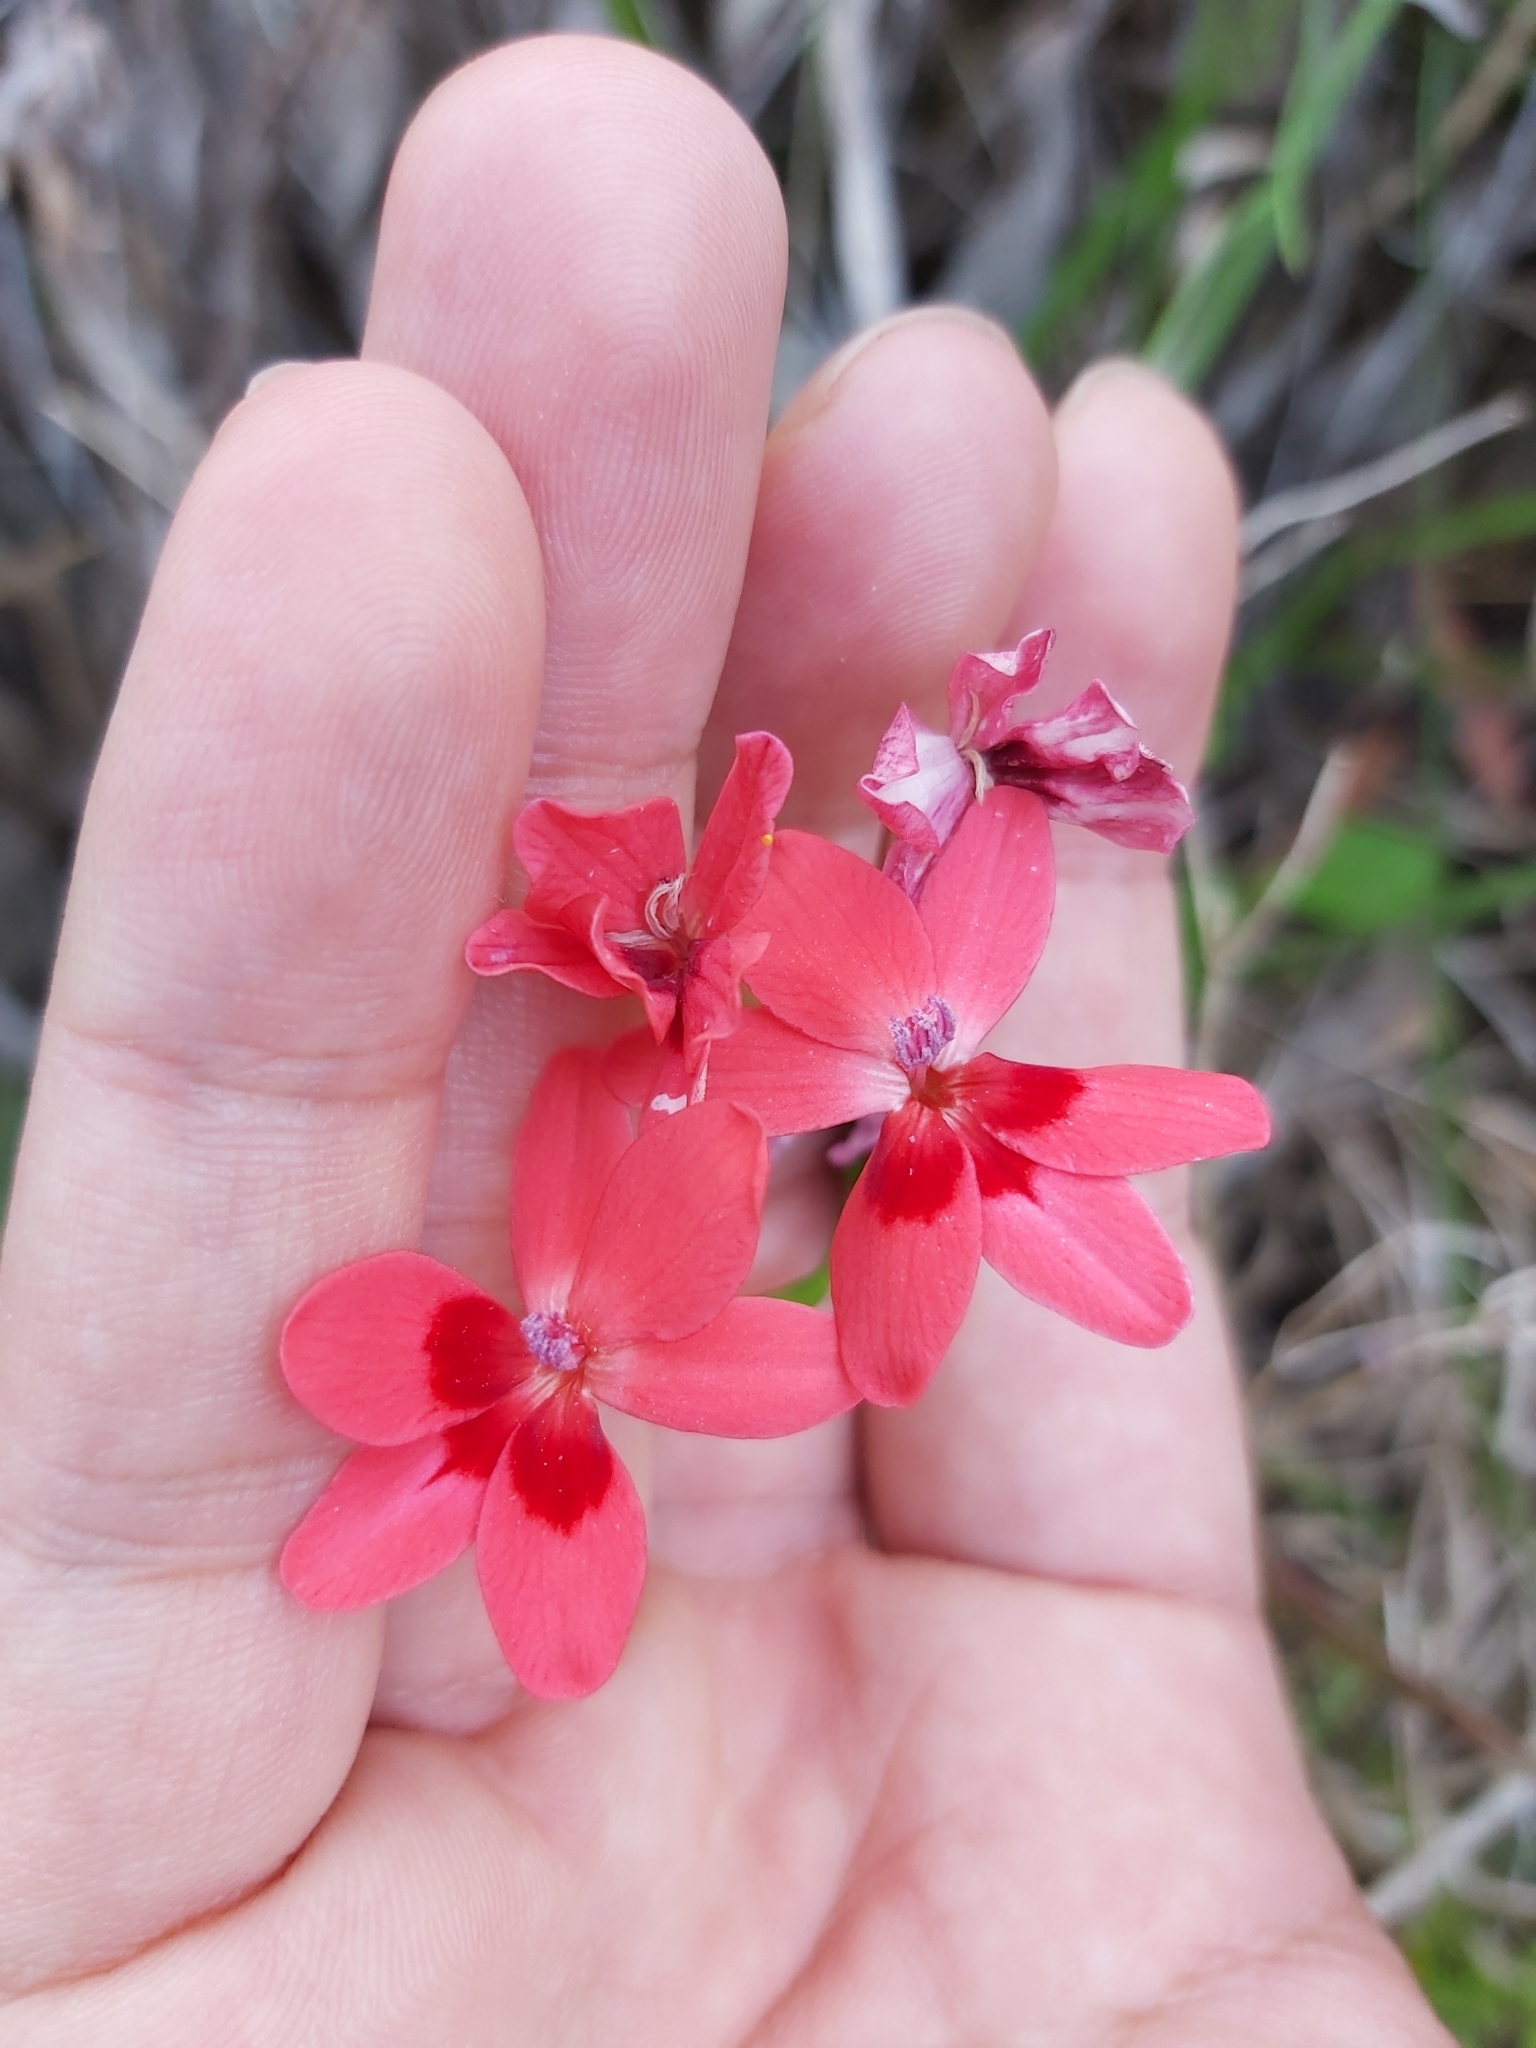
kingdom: Plantae
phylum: Tracheophyta
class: Liliopsida
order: Asparagales
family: Iridaceae
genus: Freesia
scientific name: Freesia laxa
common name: False freesia
